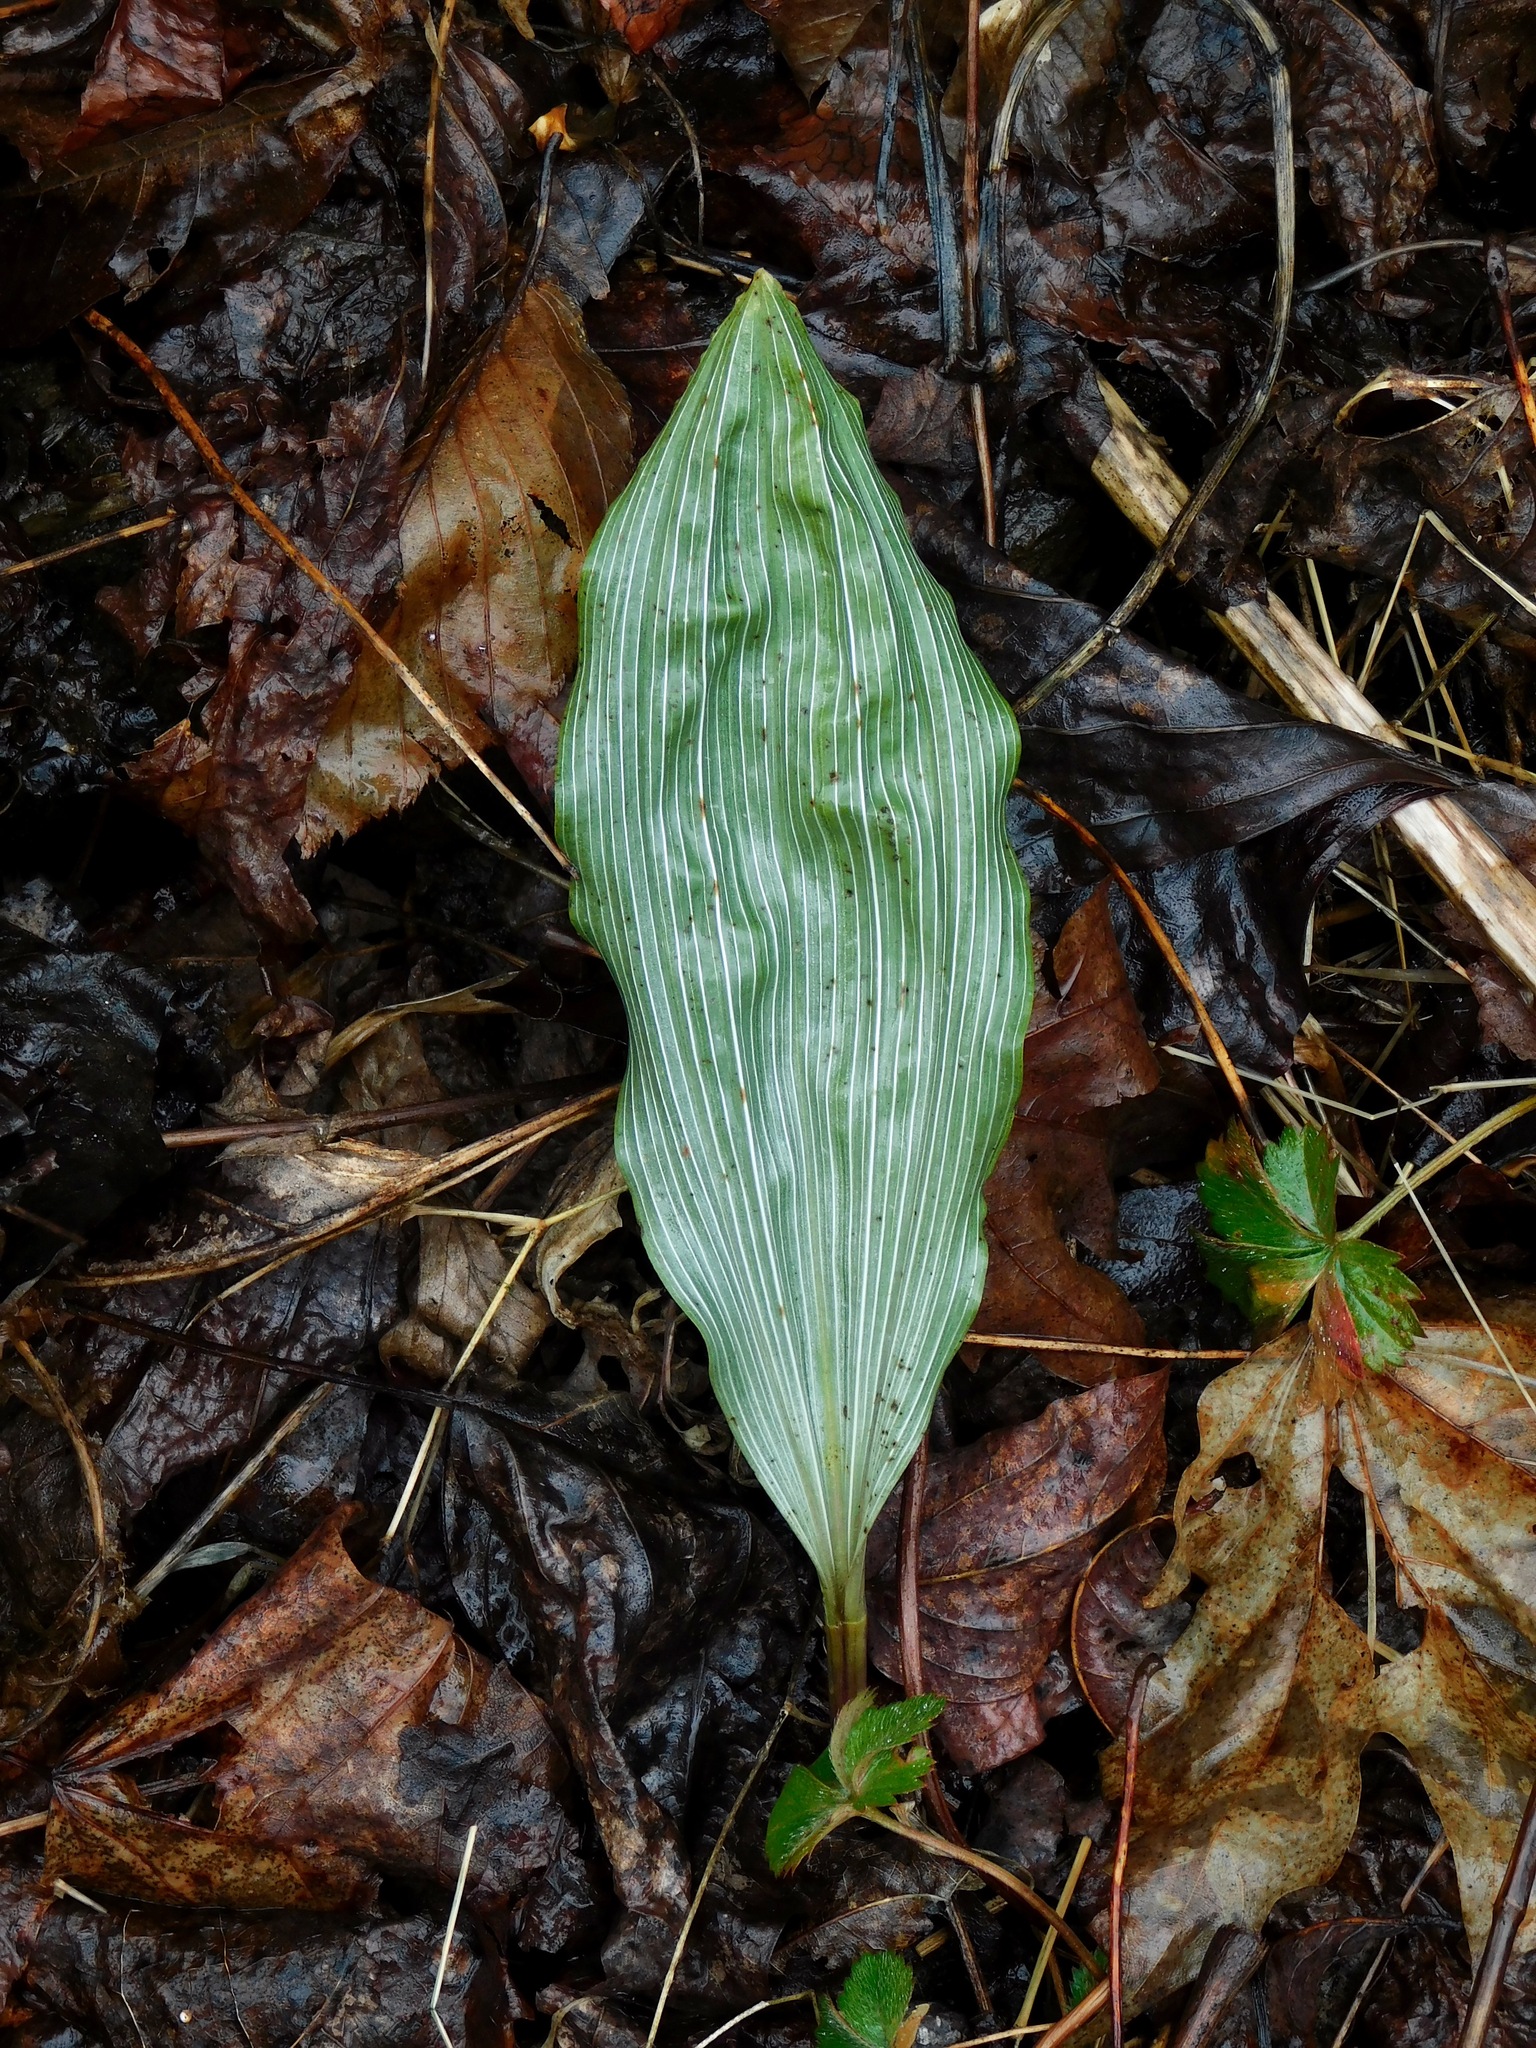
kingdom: Plantae
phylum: Tracheophyta
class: Liliopsida
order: Asparagales
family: Orchidaceae
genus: Aplectrum
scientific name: Aplectrum hyemale
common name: Adam-and-eve
